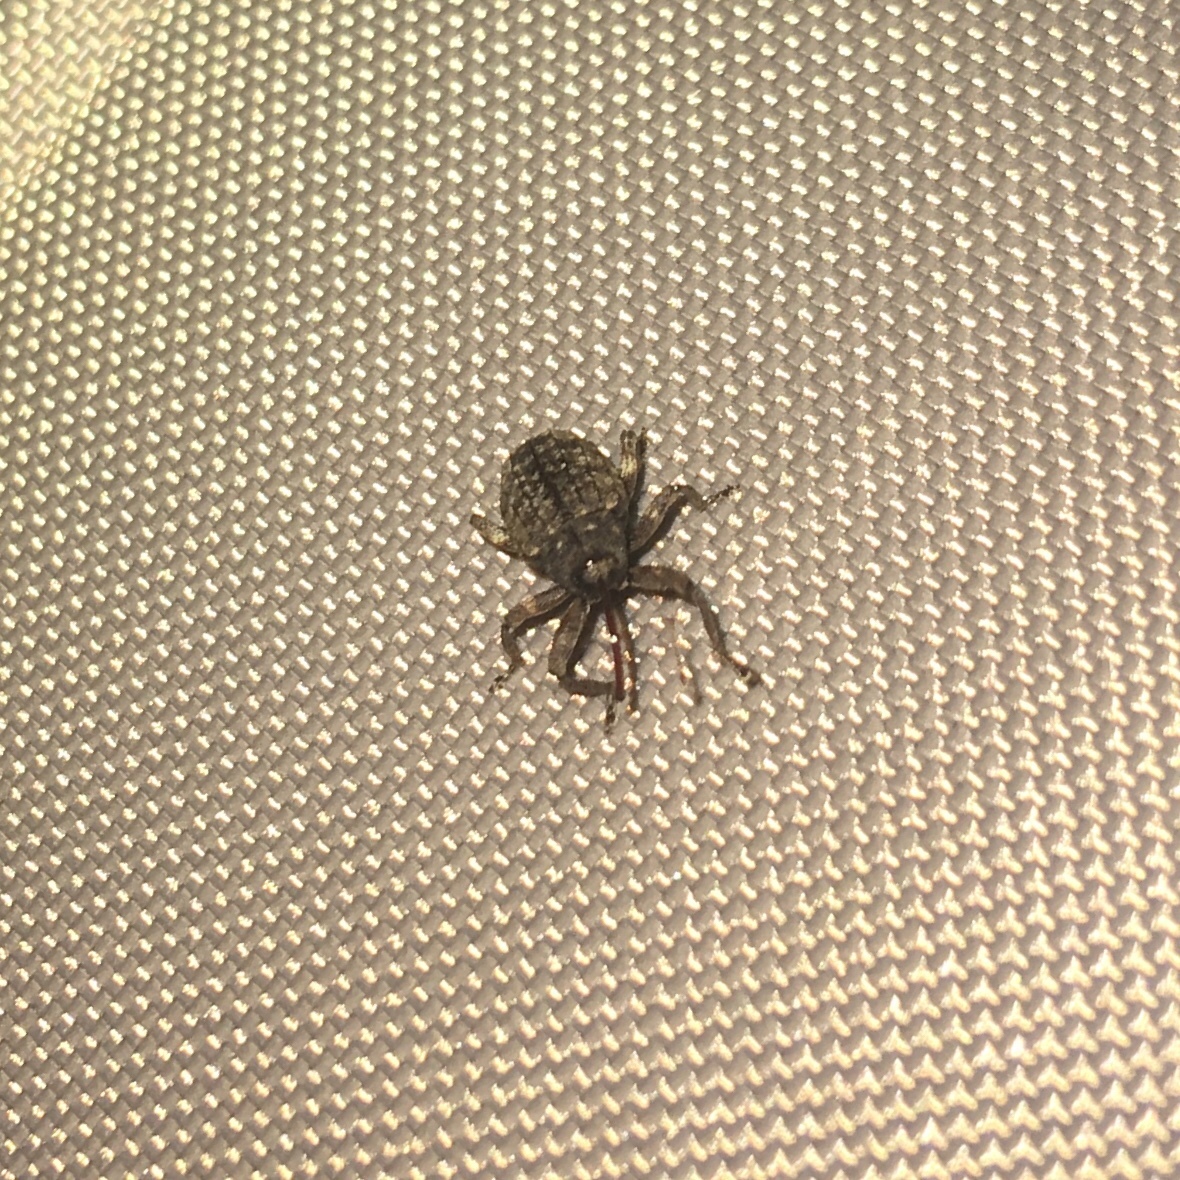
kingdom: Animalia
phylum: Arthropoda
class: Insecta
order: Coleoptera
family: Curculionidae
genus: Conotrachelus
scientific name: Conotrachelus naso
